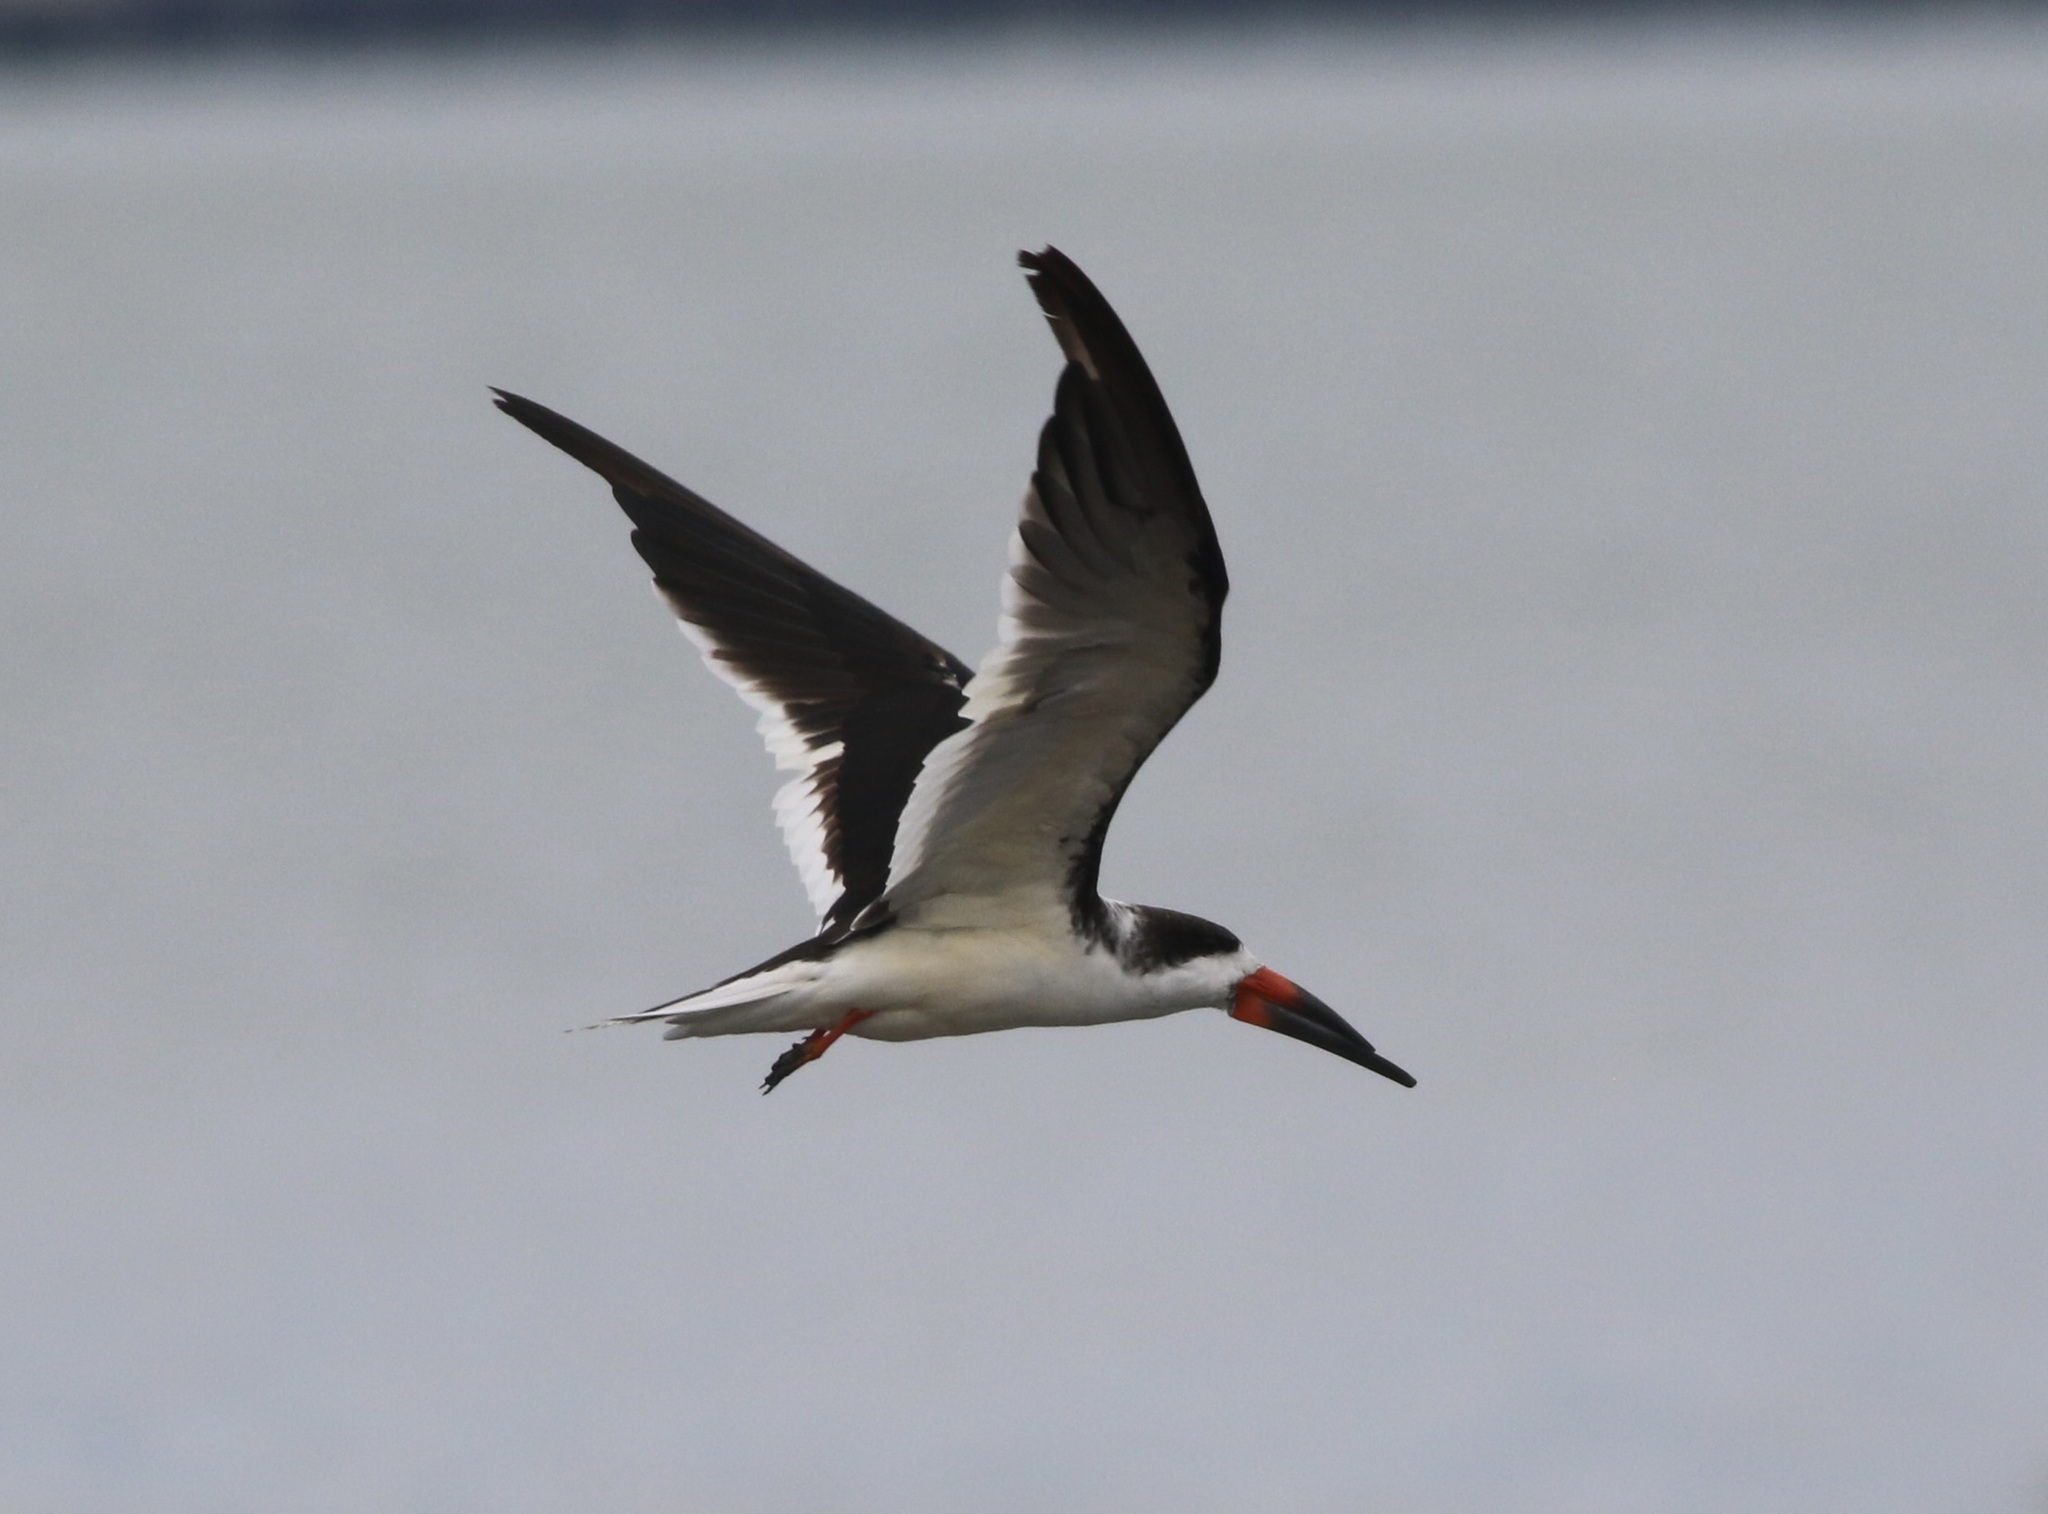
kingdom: Animalia
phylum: Chordata
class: Aves
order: Charadriiformes
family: Laridae
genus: Rynchops
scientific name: Rynchops niger
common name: Black skimmer
